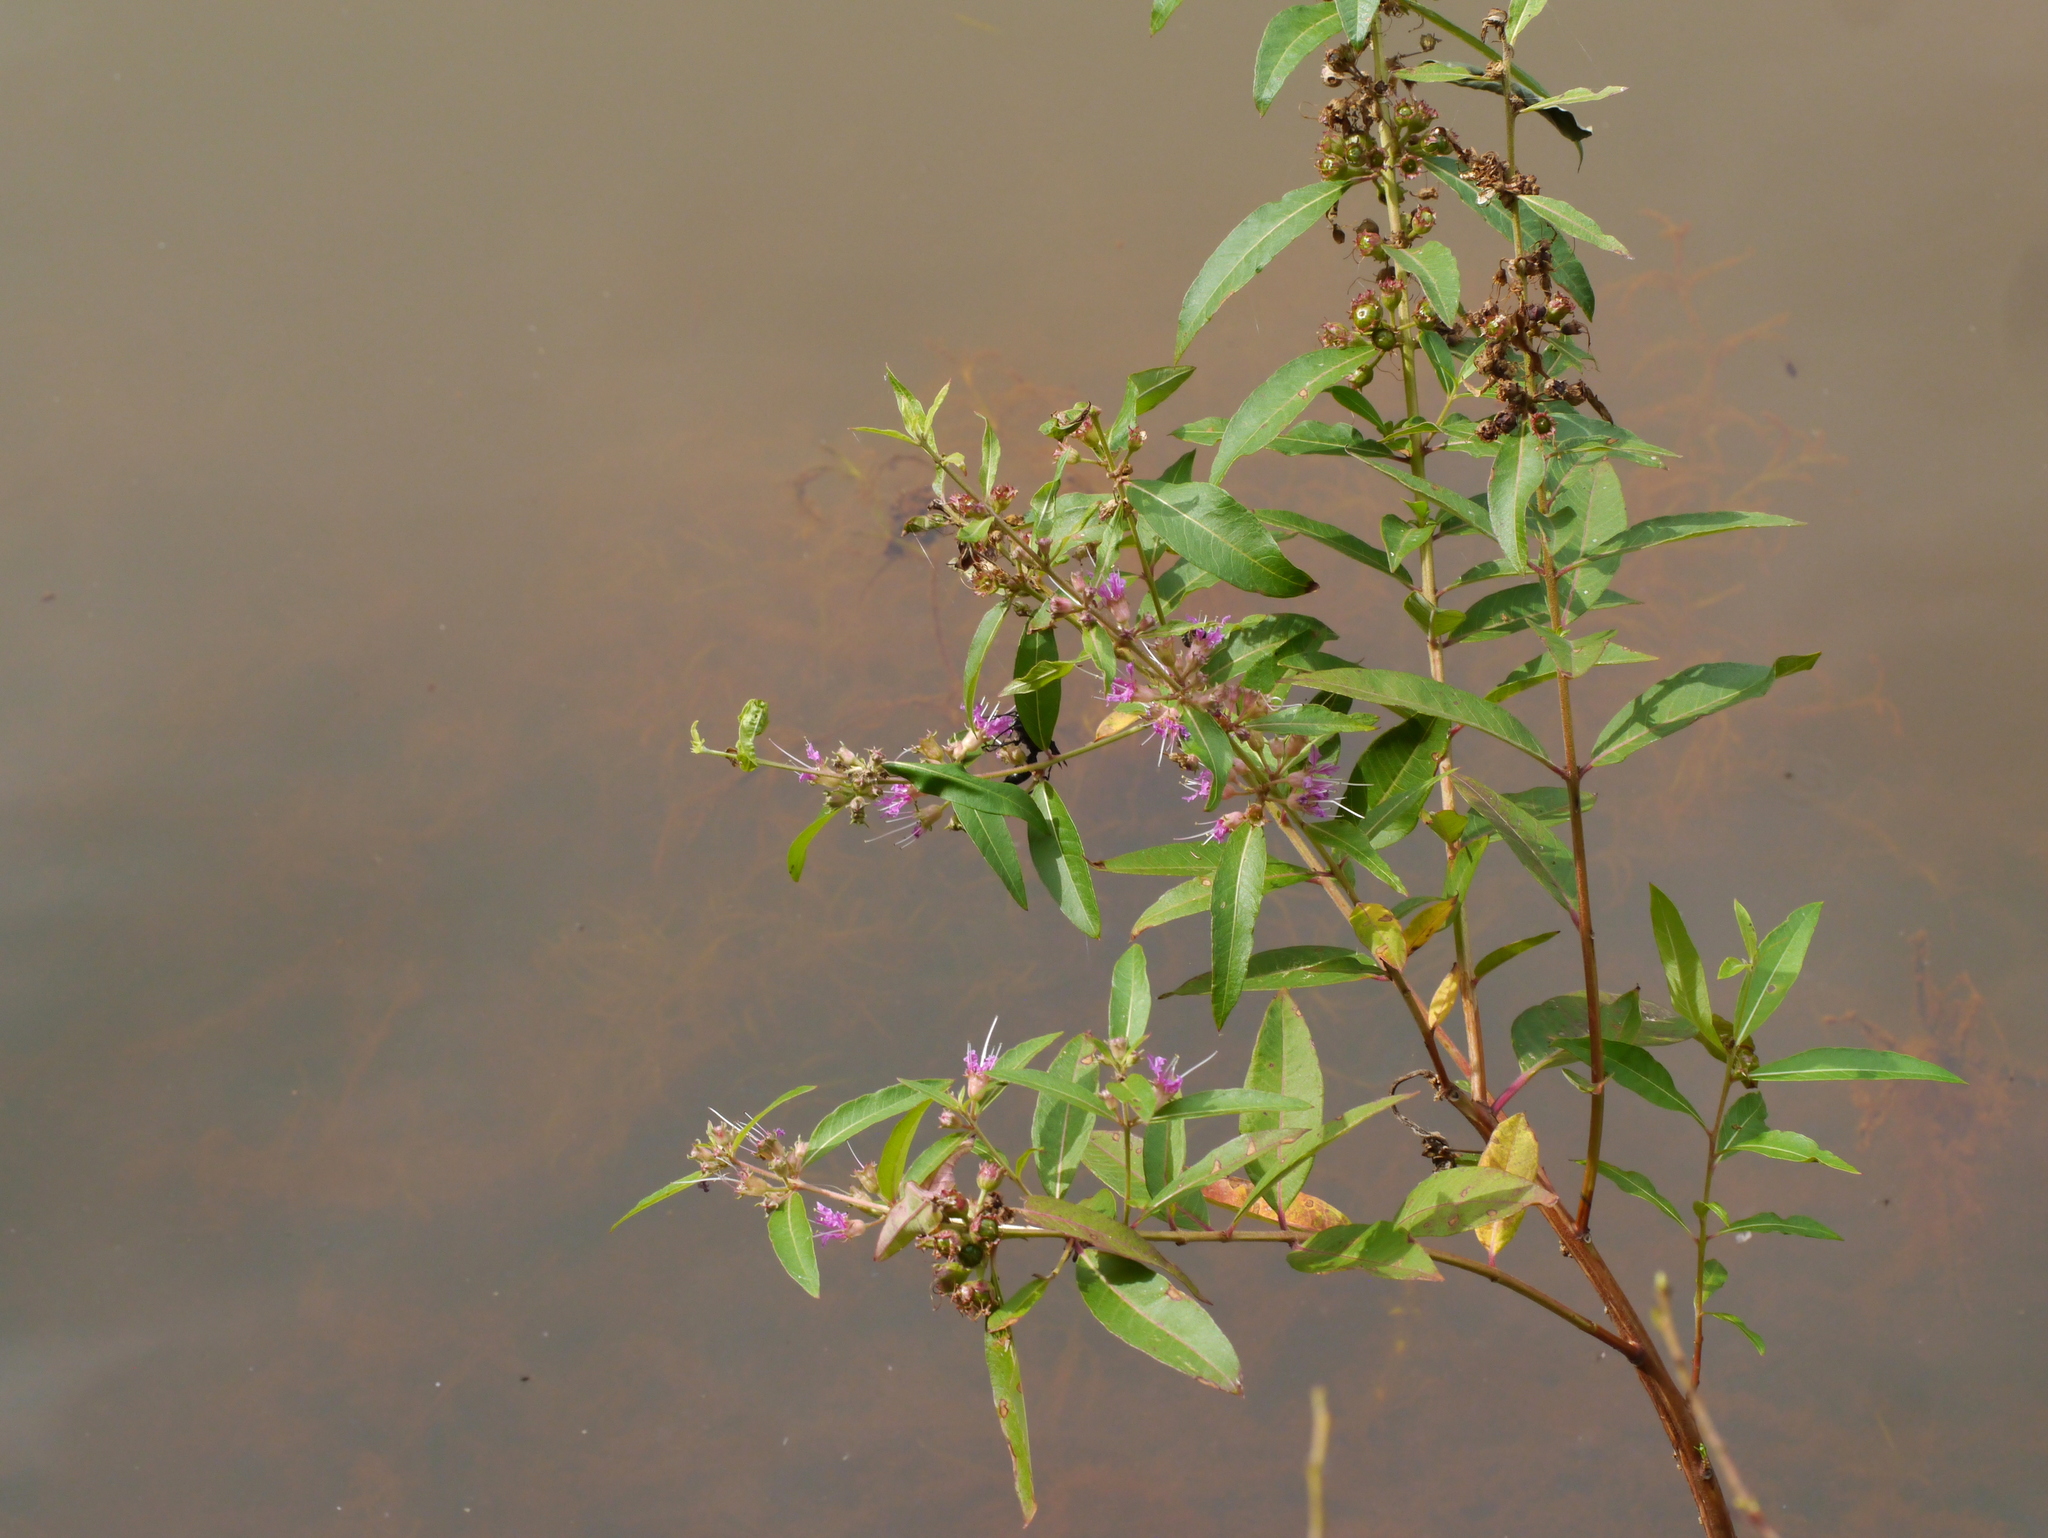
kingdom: Plantae
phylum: Tracheophyta
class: Magnoliopsida
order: Myrtales
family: Lythraceae
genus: Decodon
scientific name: Decodon verticillatus
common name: Hairy swamp loosestrife
